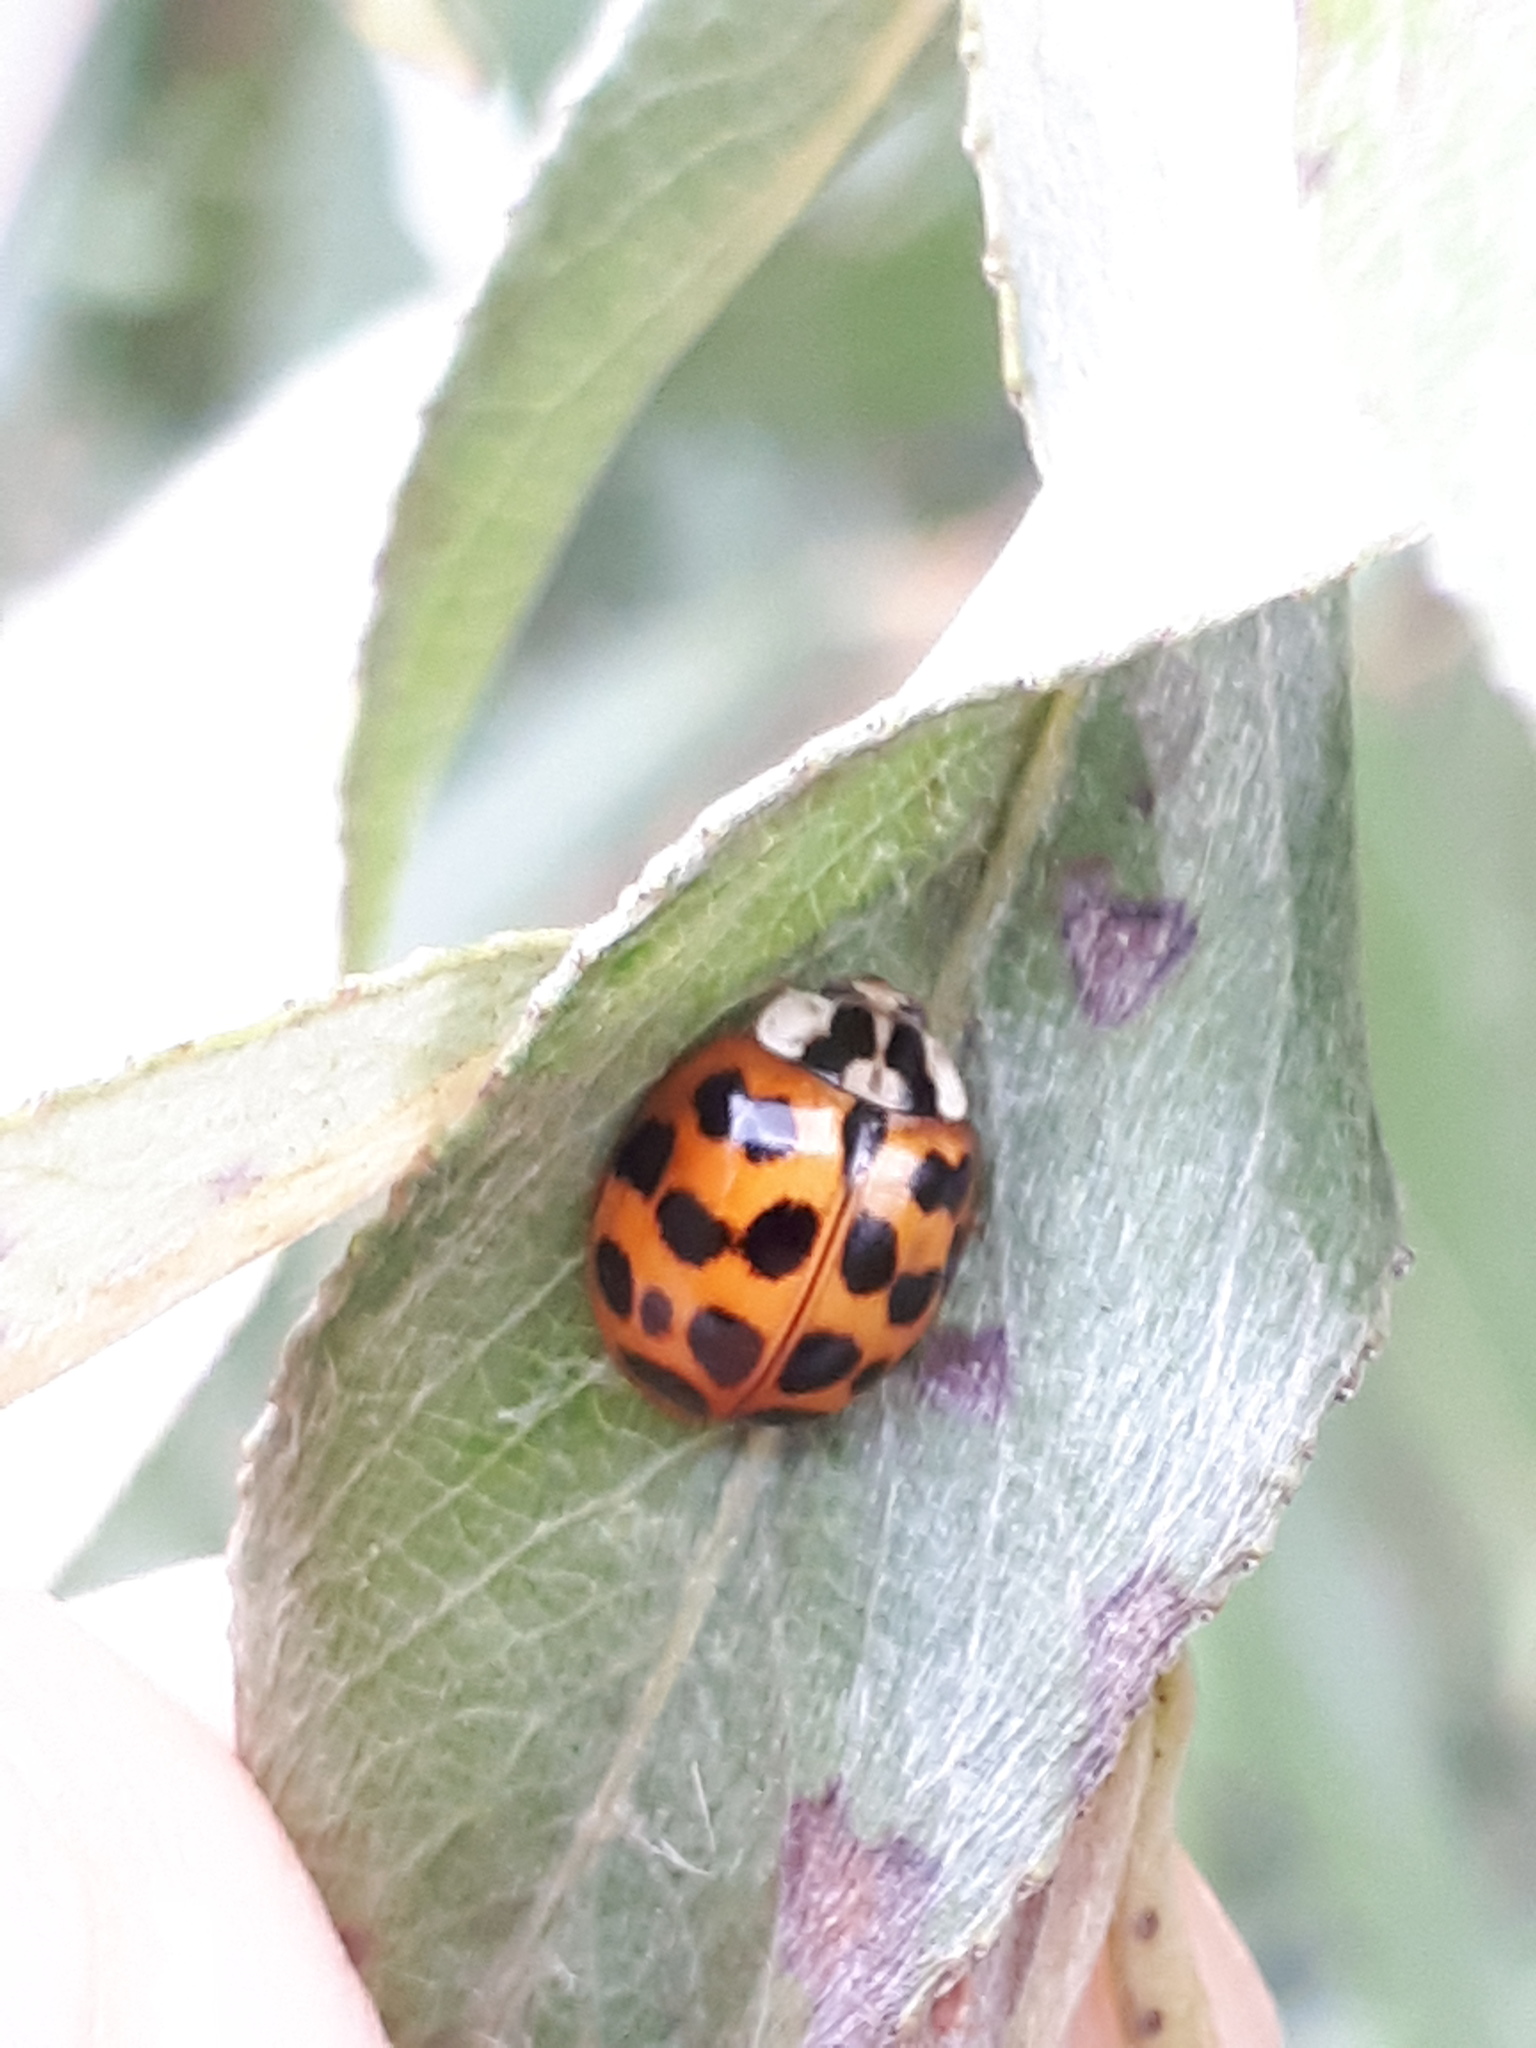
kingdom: Animalia
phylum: Arthropoda
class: Insecta
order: Coleoptera
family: Coccinellidae
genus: Harmonia
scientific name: Harmonia axyridis
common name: Harlequin ladybird
